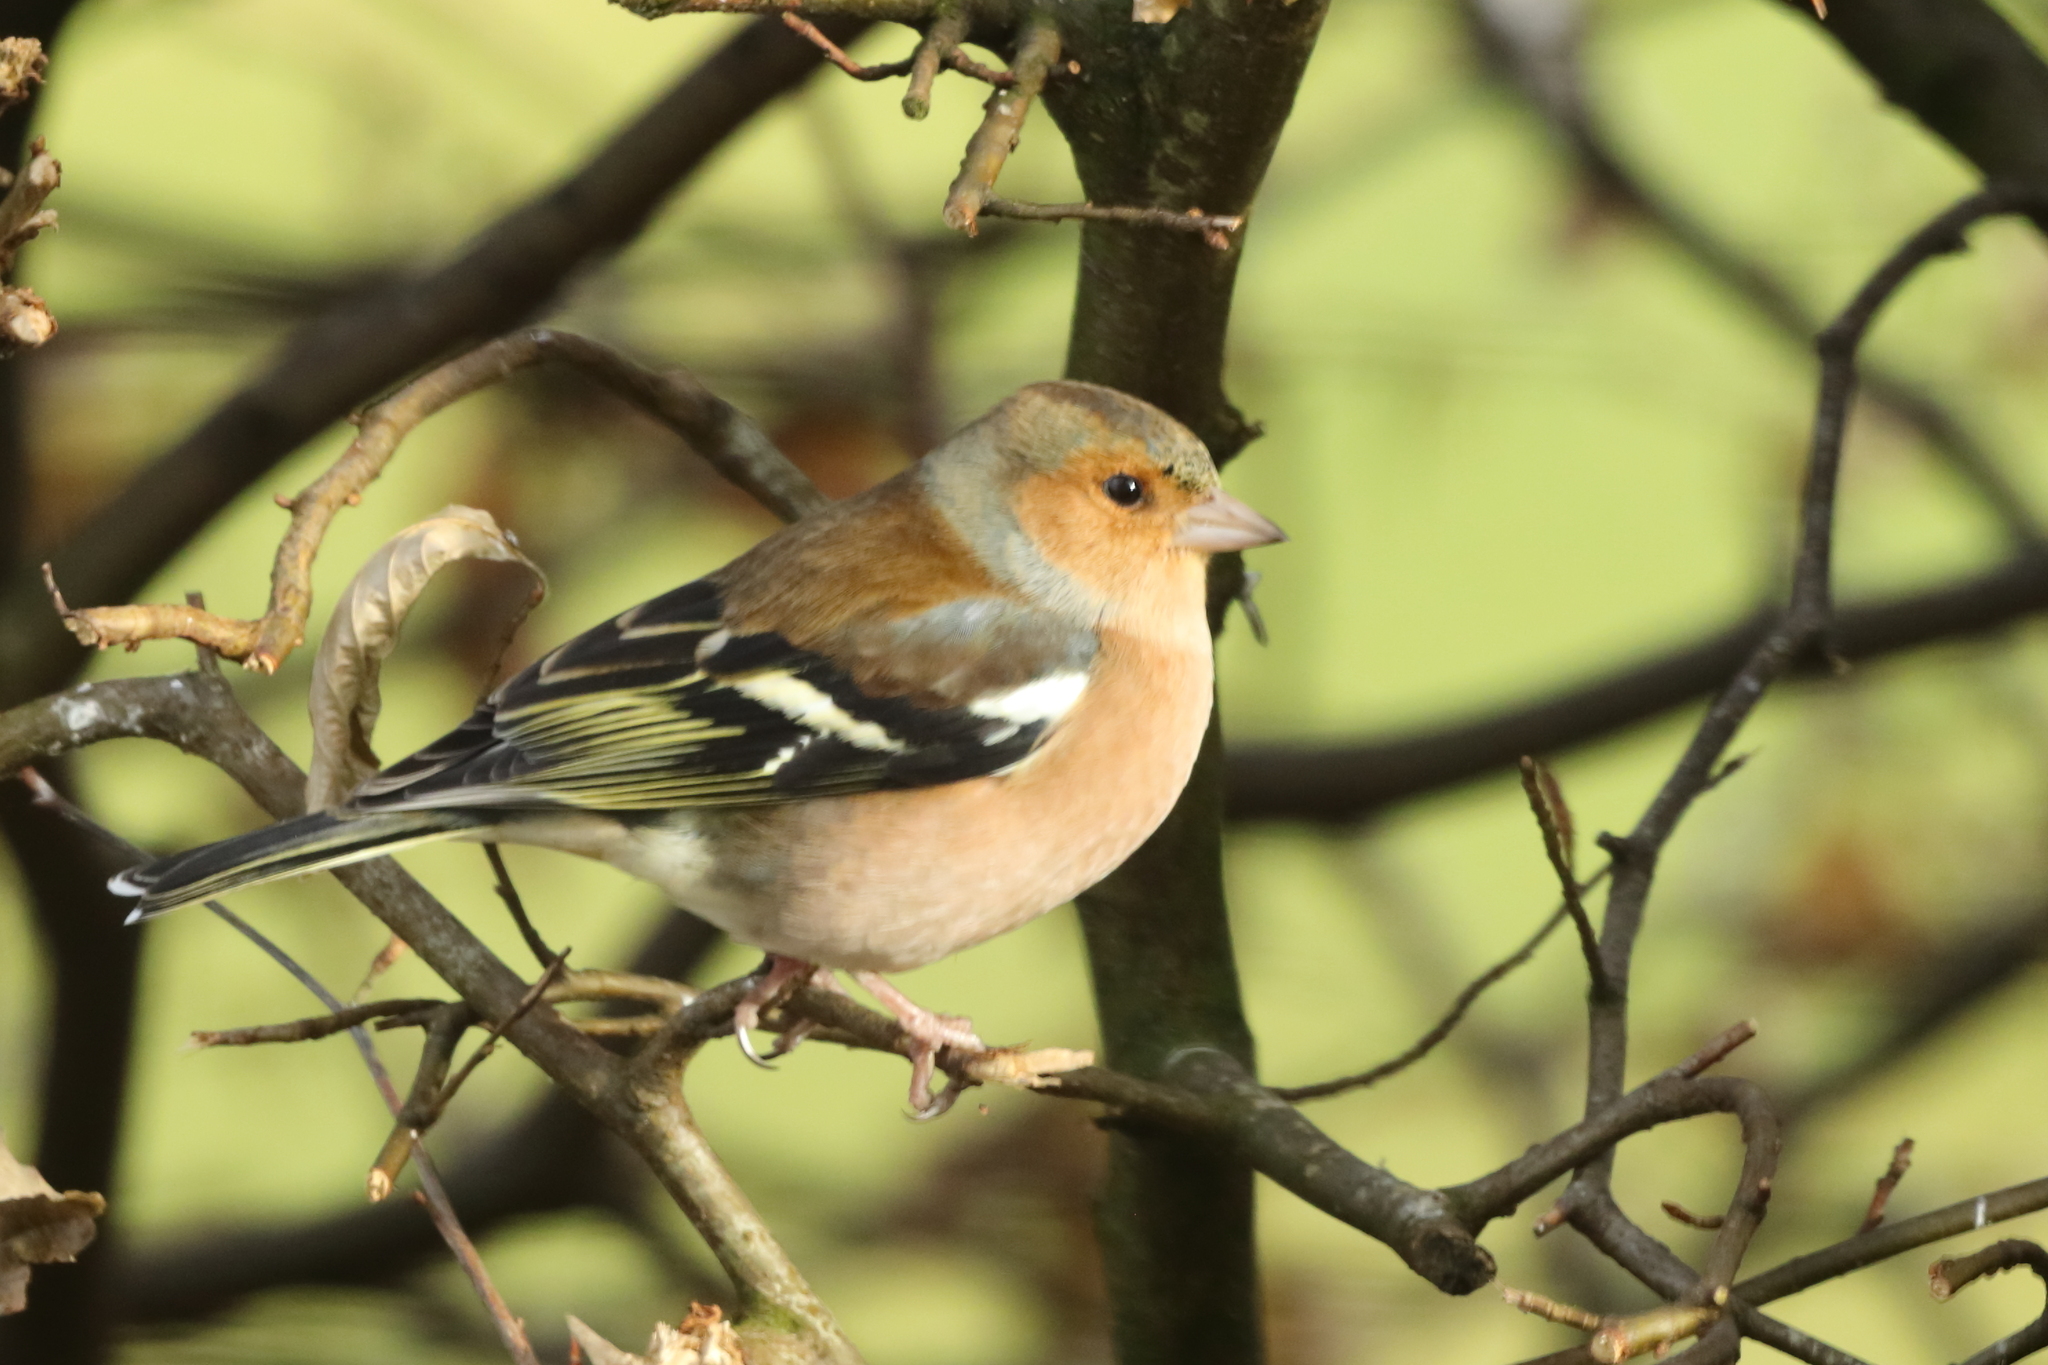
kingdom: Animalia
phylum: Chordata
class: Aves
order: Passeriformes
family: Fringillidae
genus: Fringilla
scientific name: Fringilla coelebs
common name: Common chaffinch
